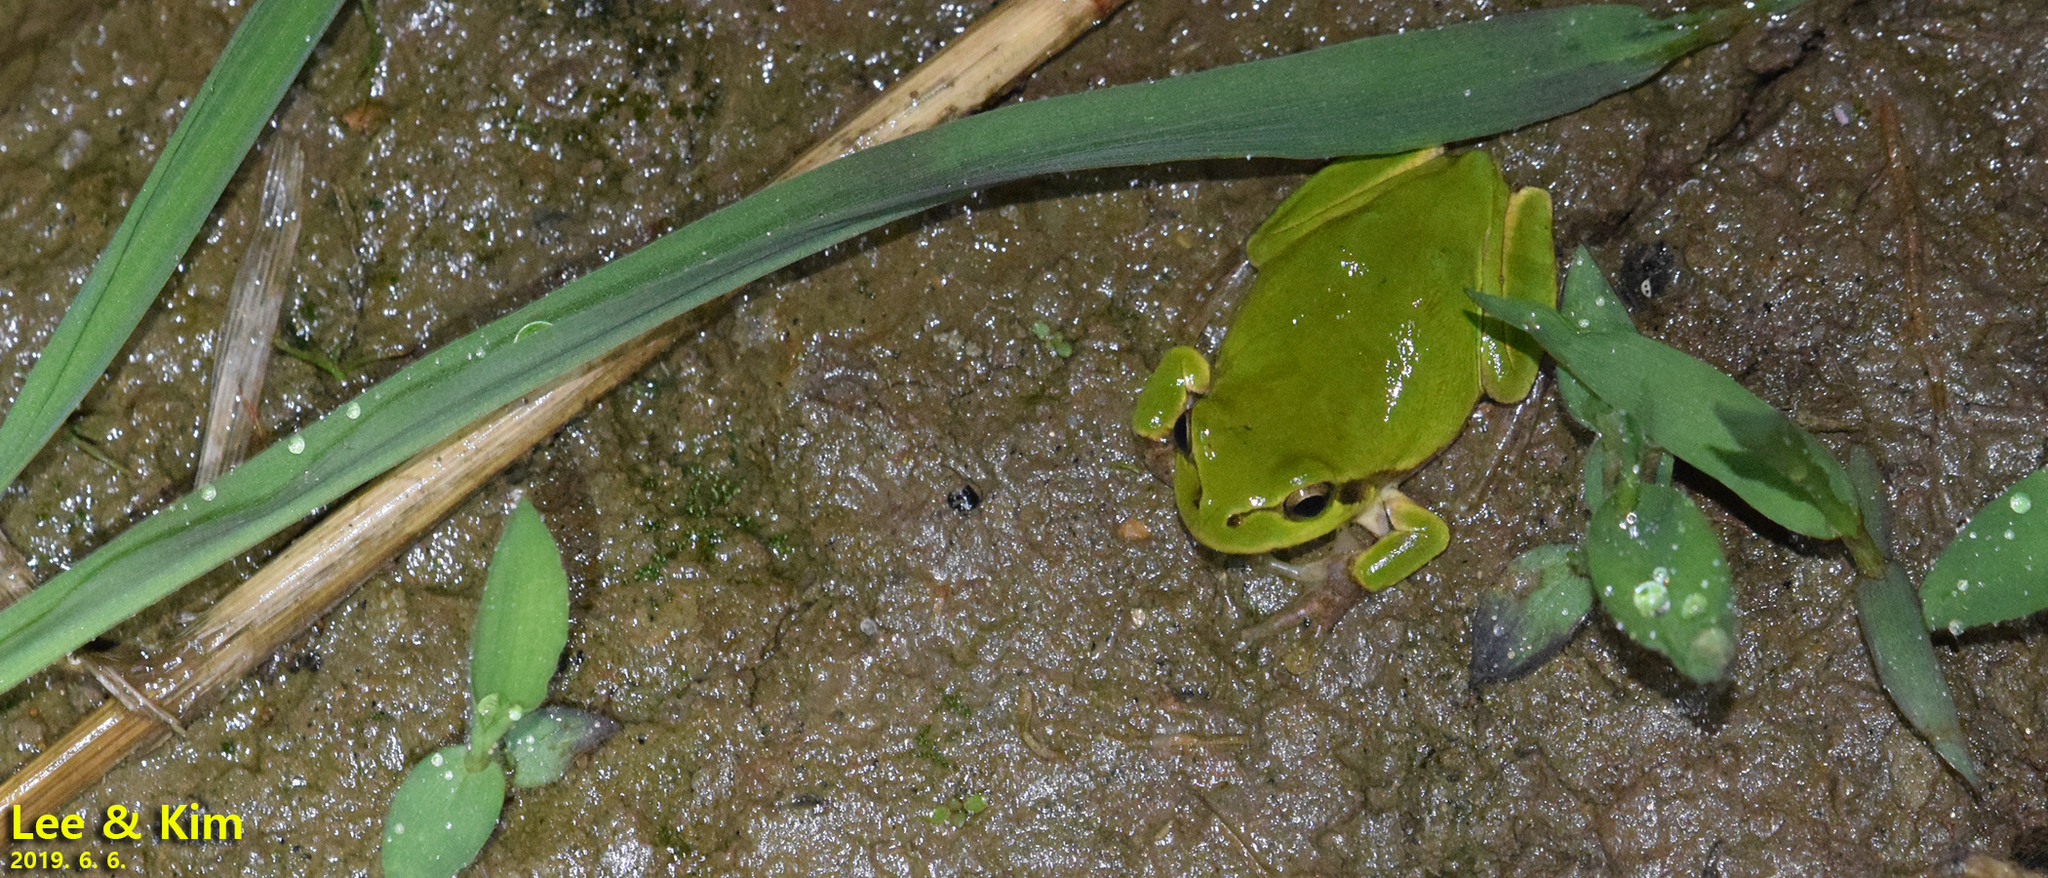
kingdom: Animalia
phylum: Chordata
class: Amphibia
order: Anura
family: Hylidae
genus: Dryophytes
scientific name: Dryophytes japonicus
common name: Japanese treefrog
